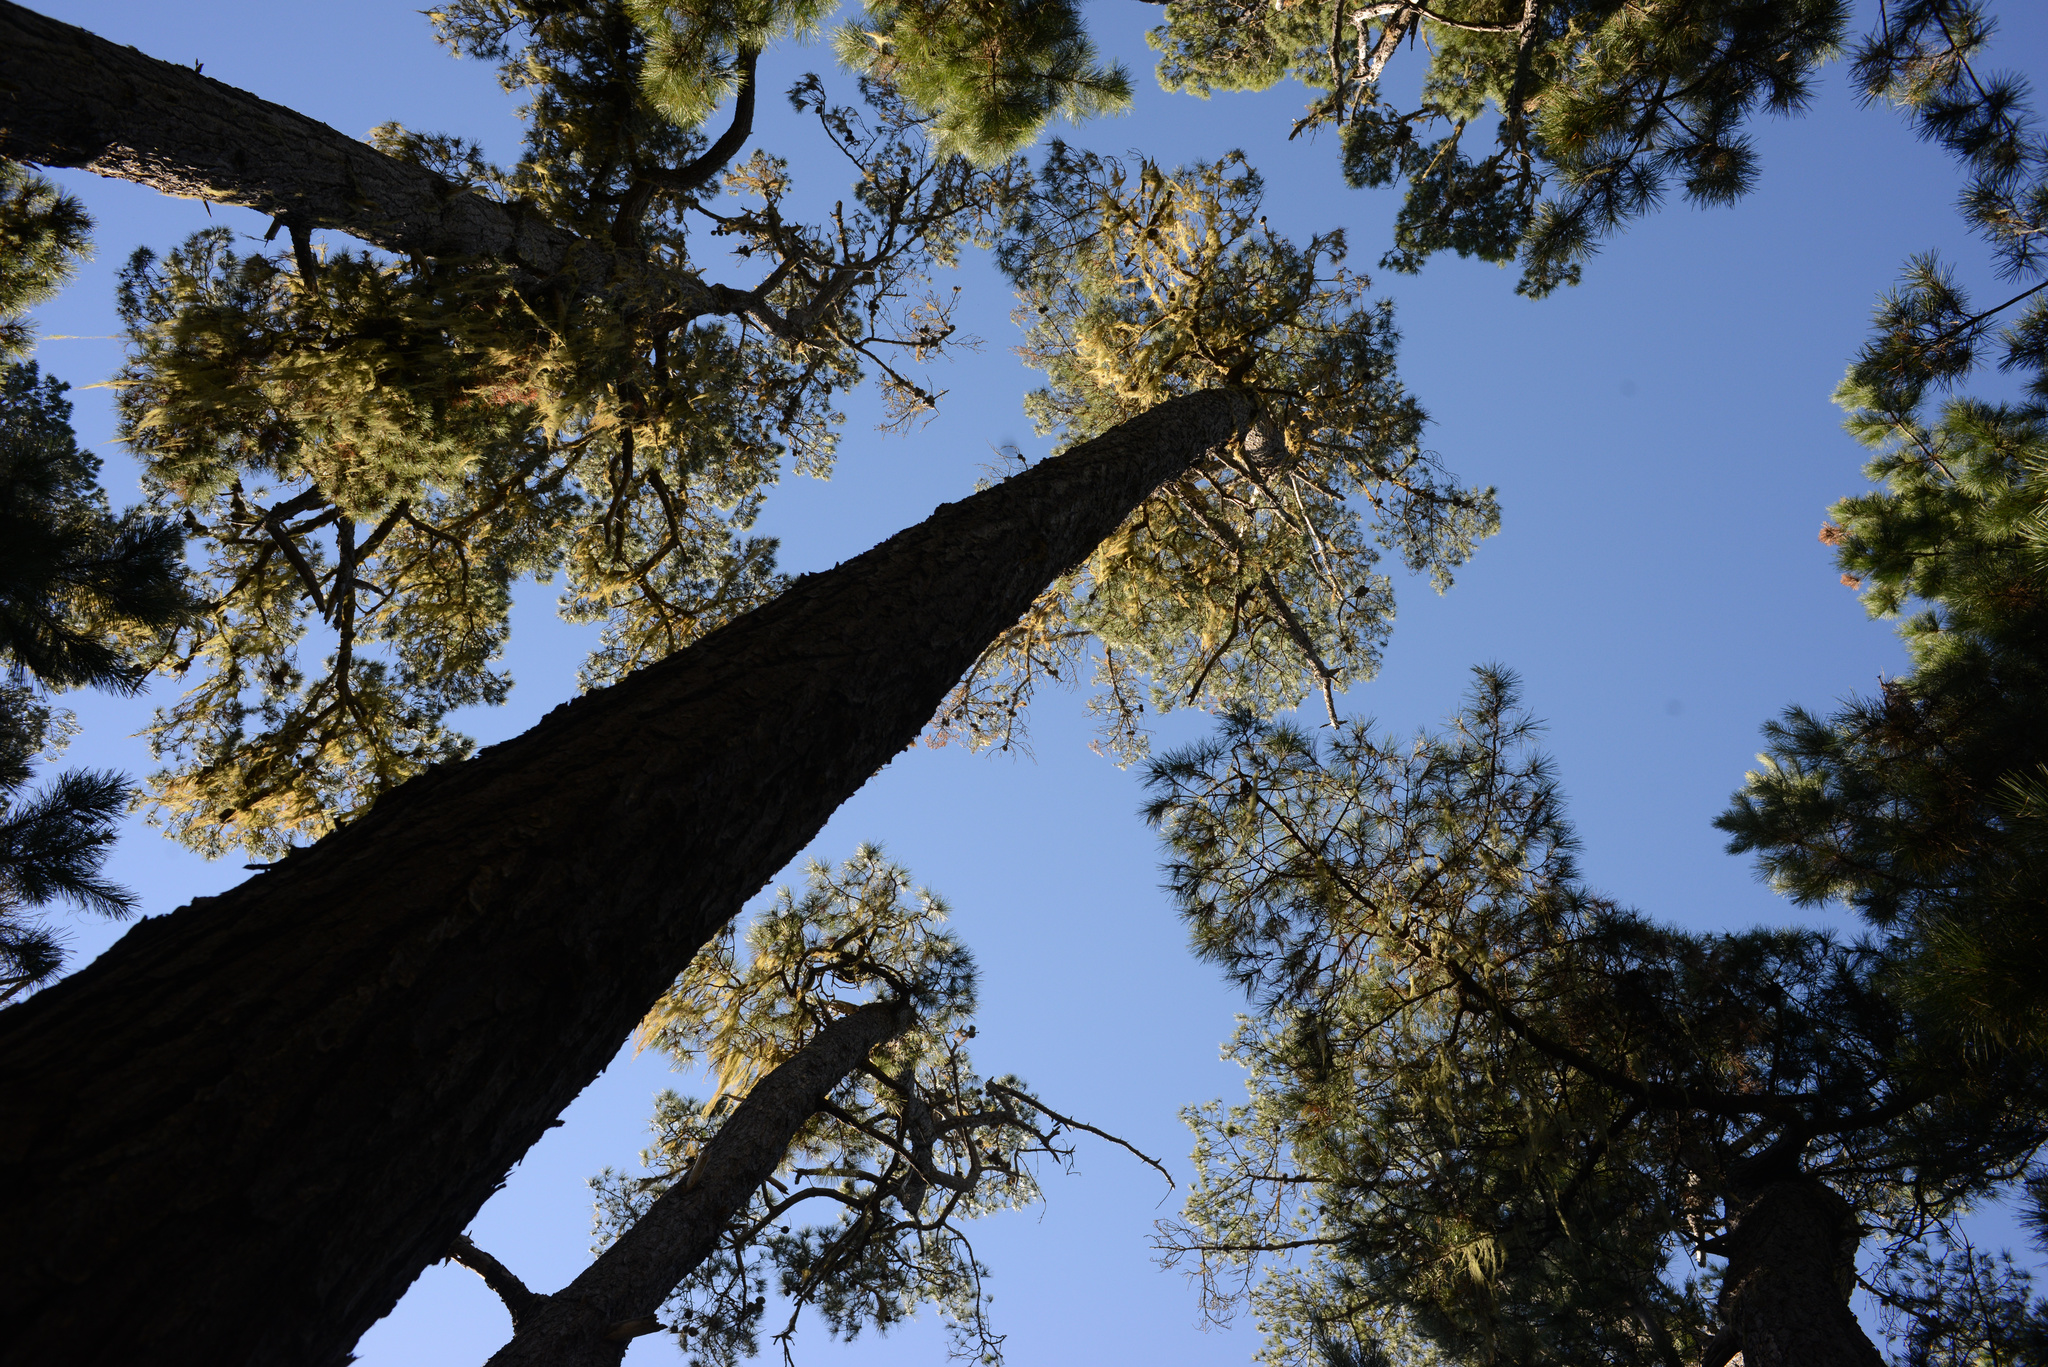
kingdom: Plantae
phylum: Tracheophyta
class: Pinopsida
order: Pinales
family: Pinaceae
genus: Pinus
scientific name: Pinus radiata
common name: Monterey pine
